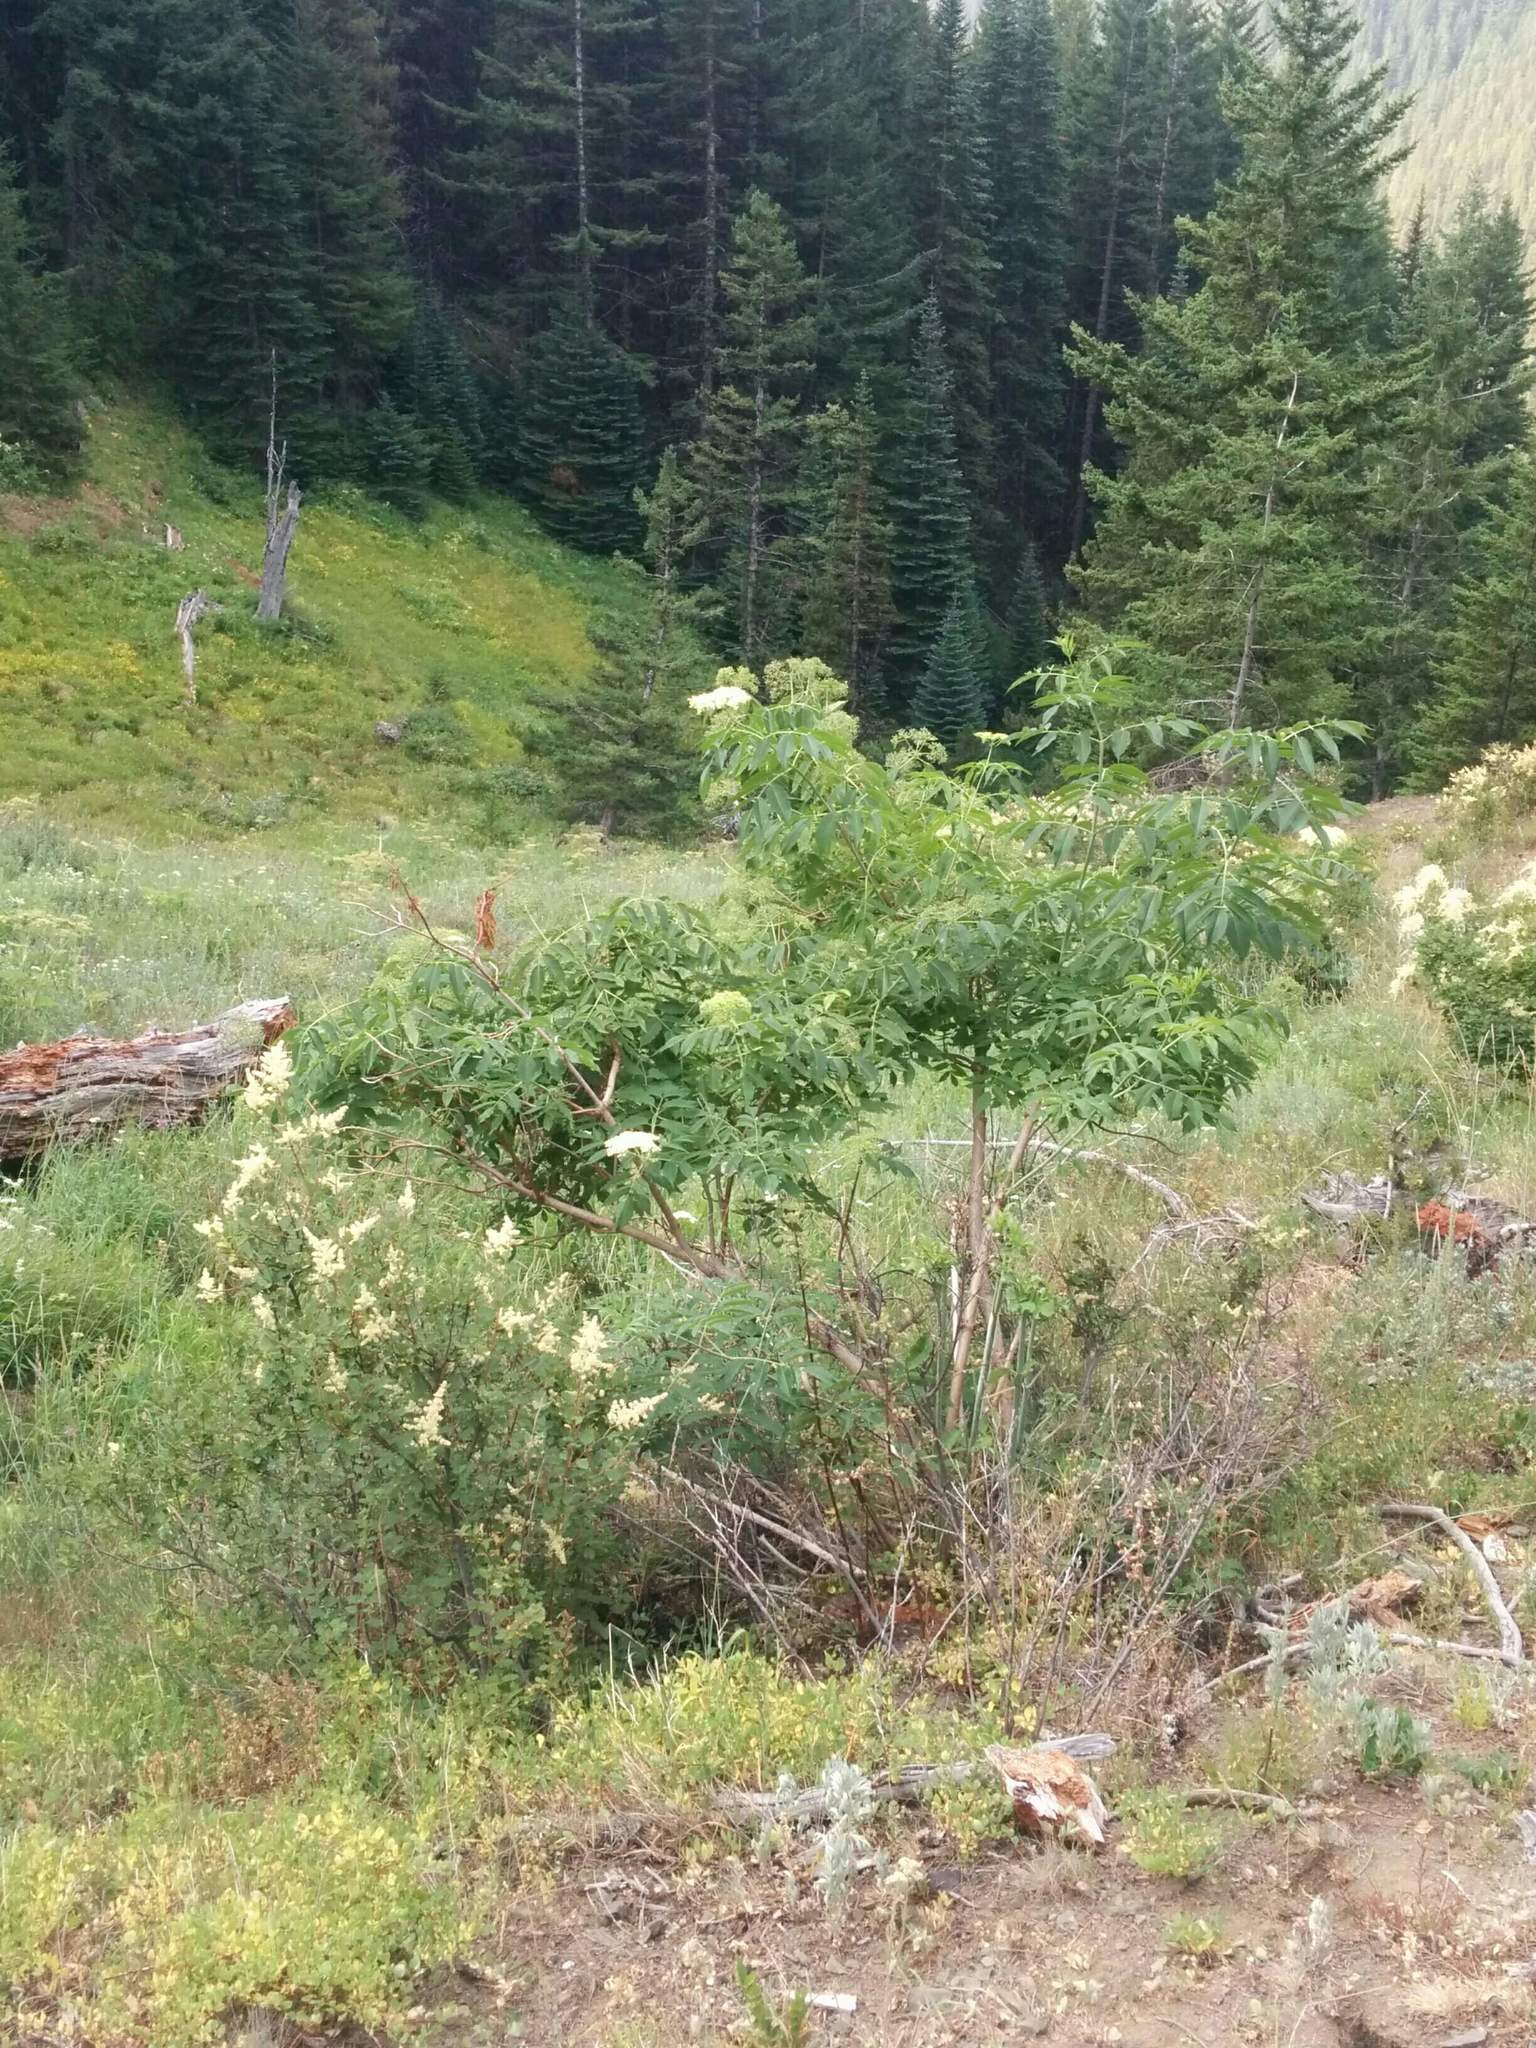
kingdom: Plantae
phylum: Tracheophyta
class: Magnoliopsida
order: Dipsacales
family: Viburnaceae
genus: Sambucus
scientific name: Sambucus cerulea
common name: Blue elder
